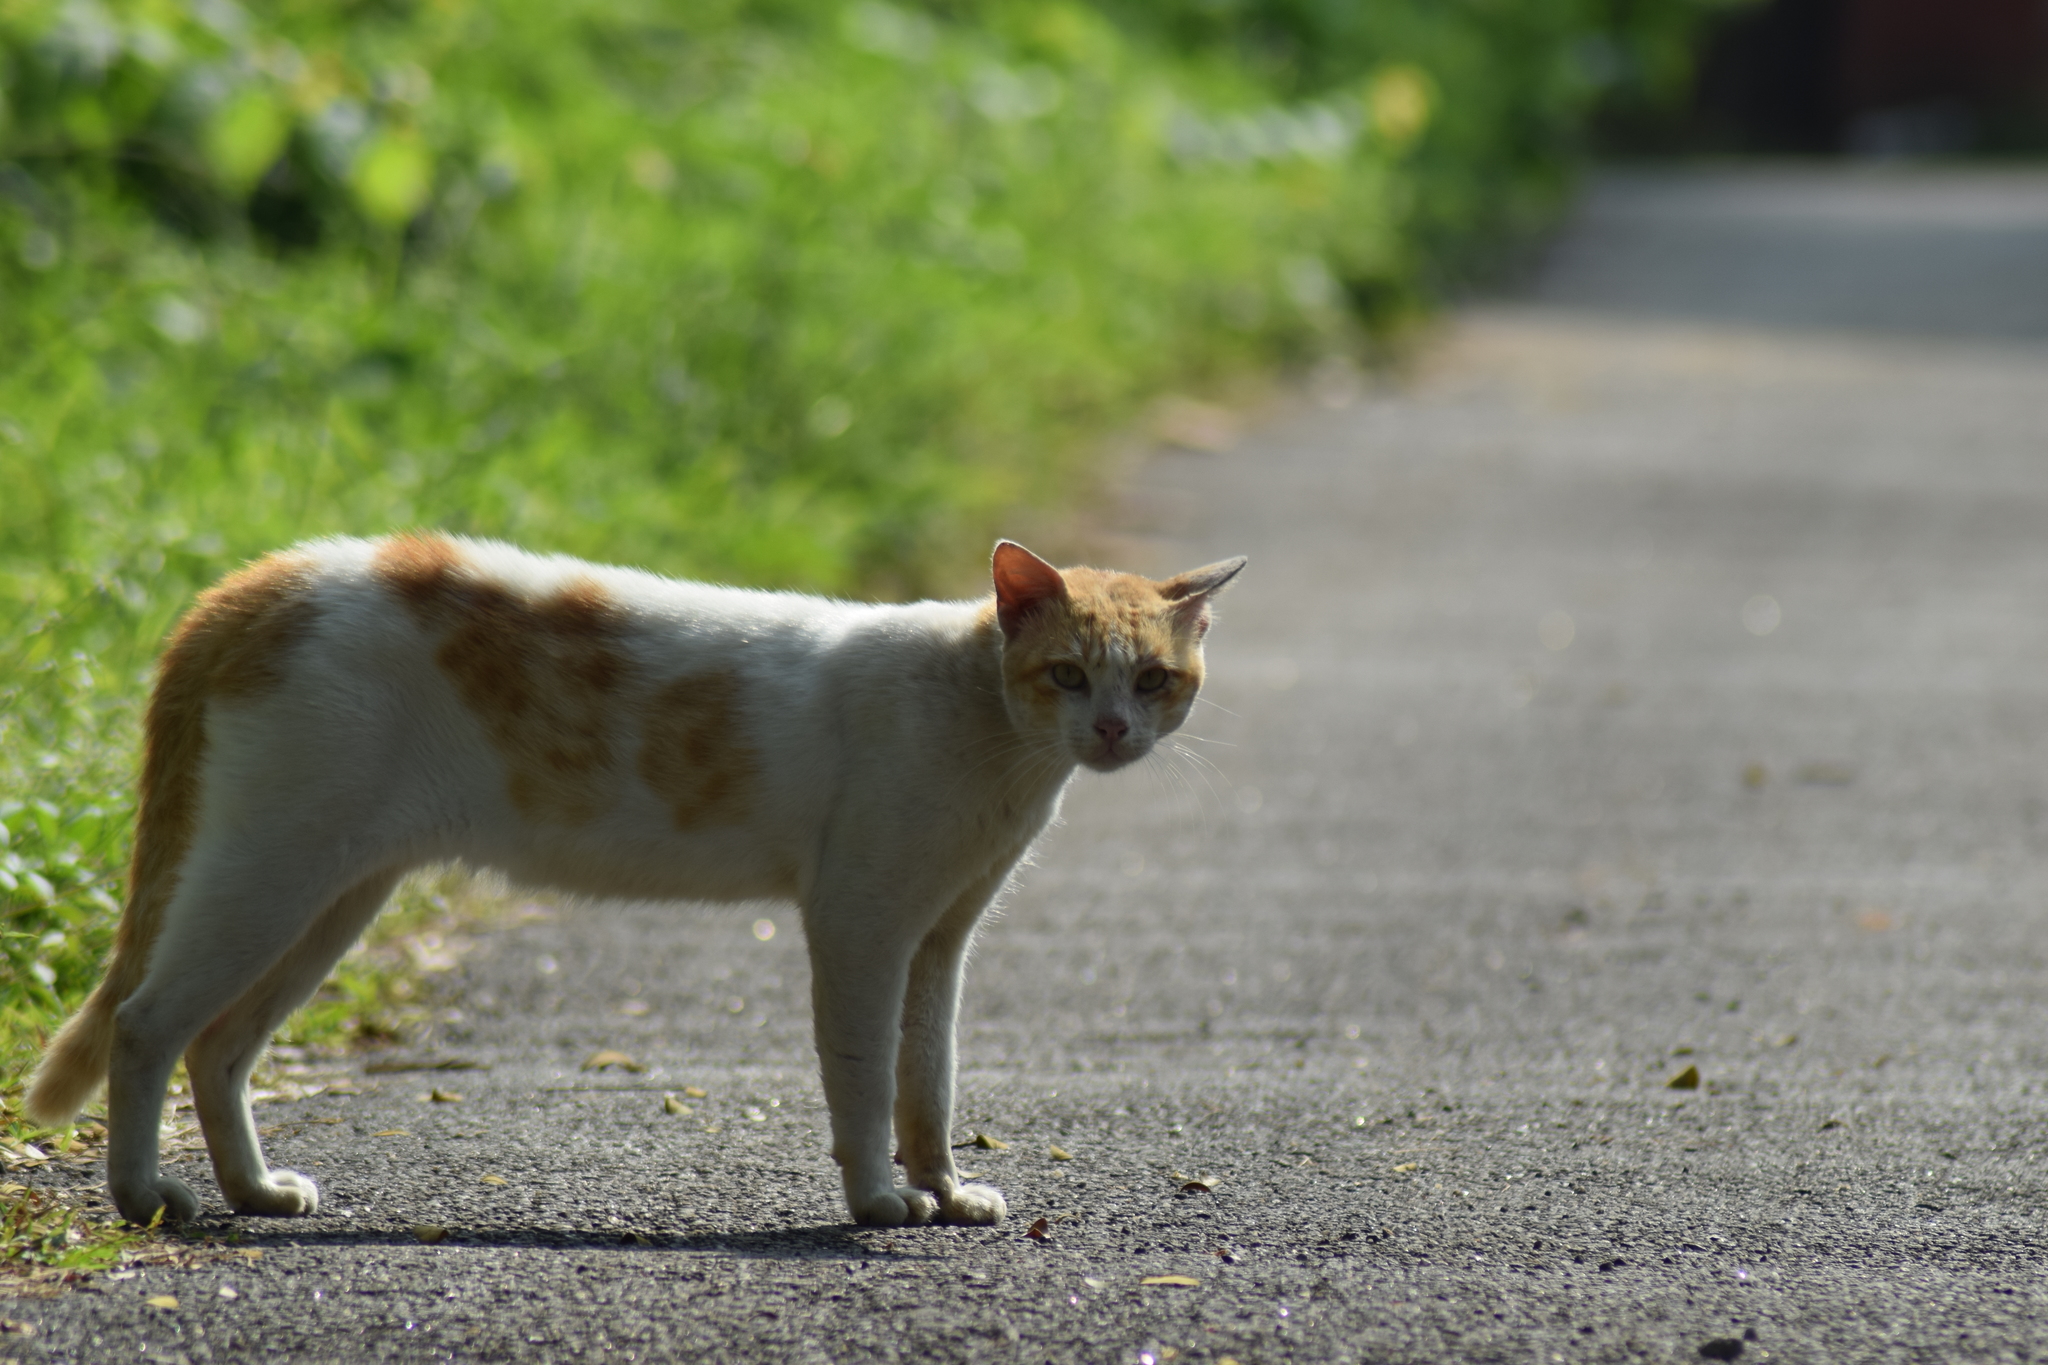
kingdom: Animalia
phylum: Chordata
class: Mammalia
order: Carnivora
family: Felidae
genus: Felis
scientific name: Felis catus
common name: Domestic cat
